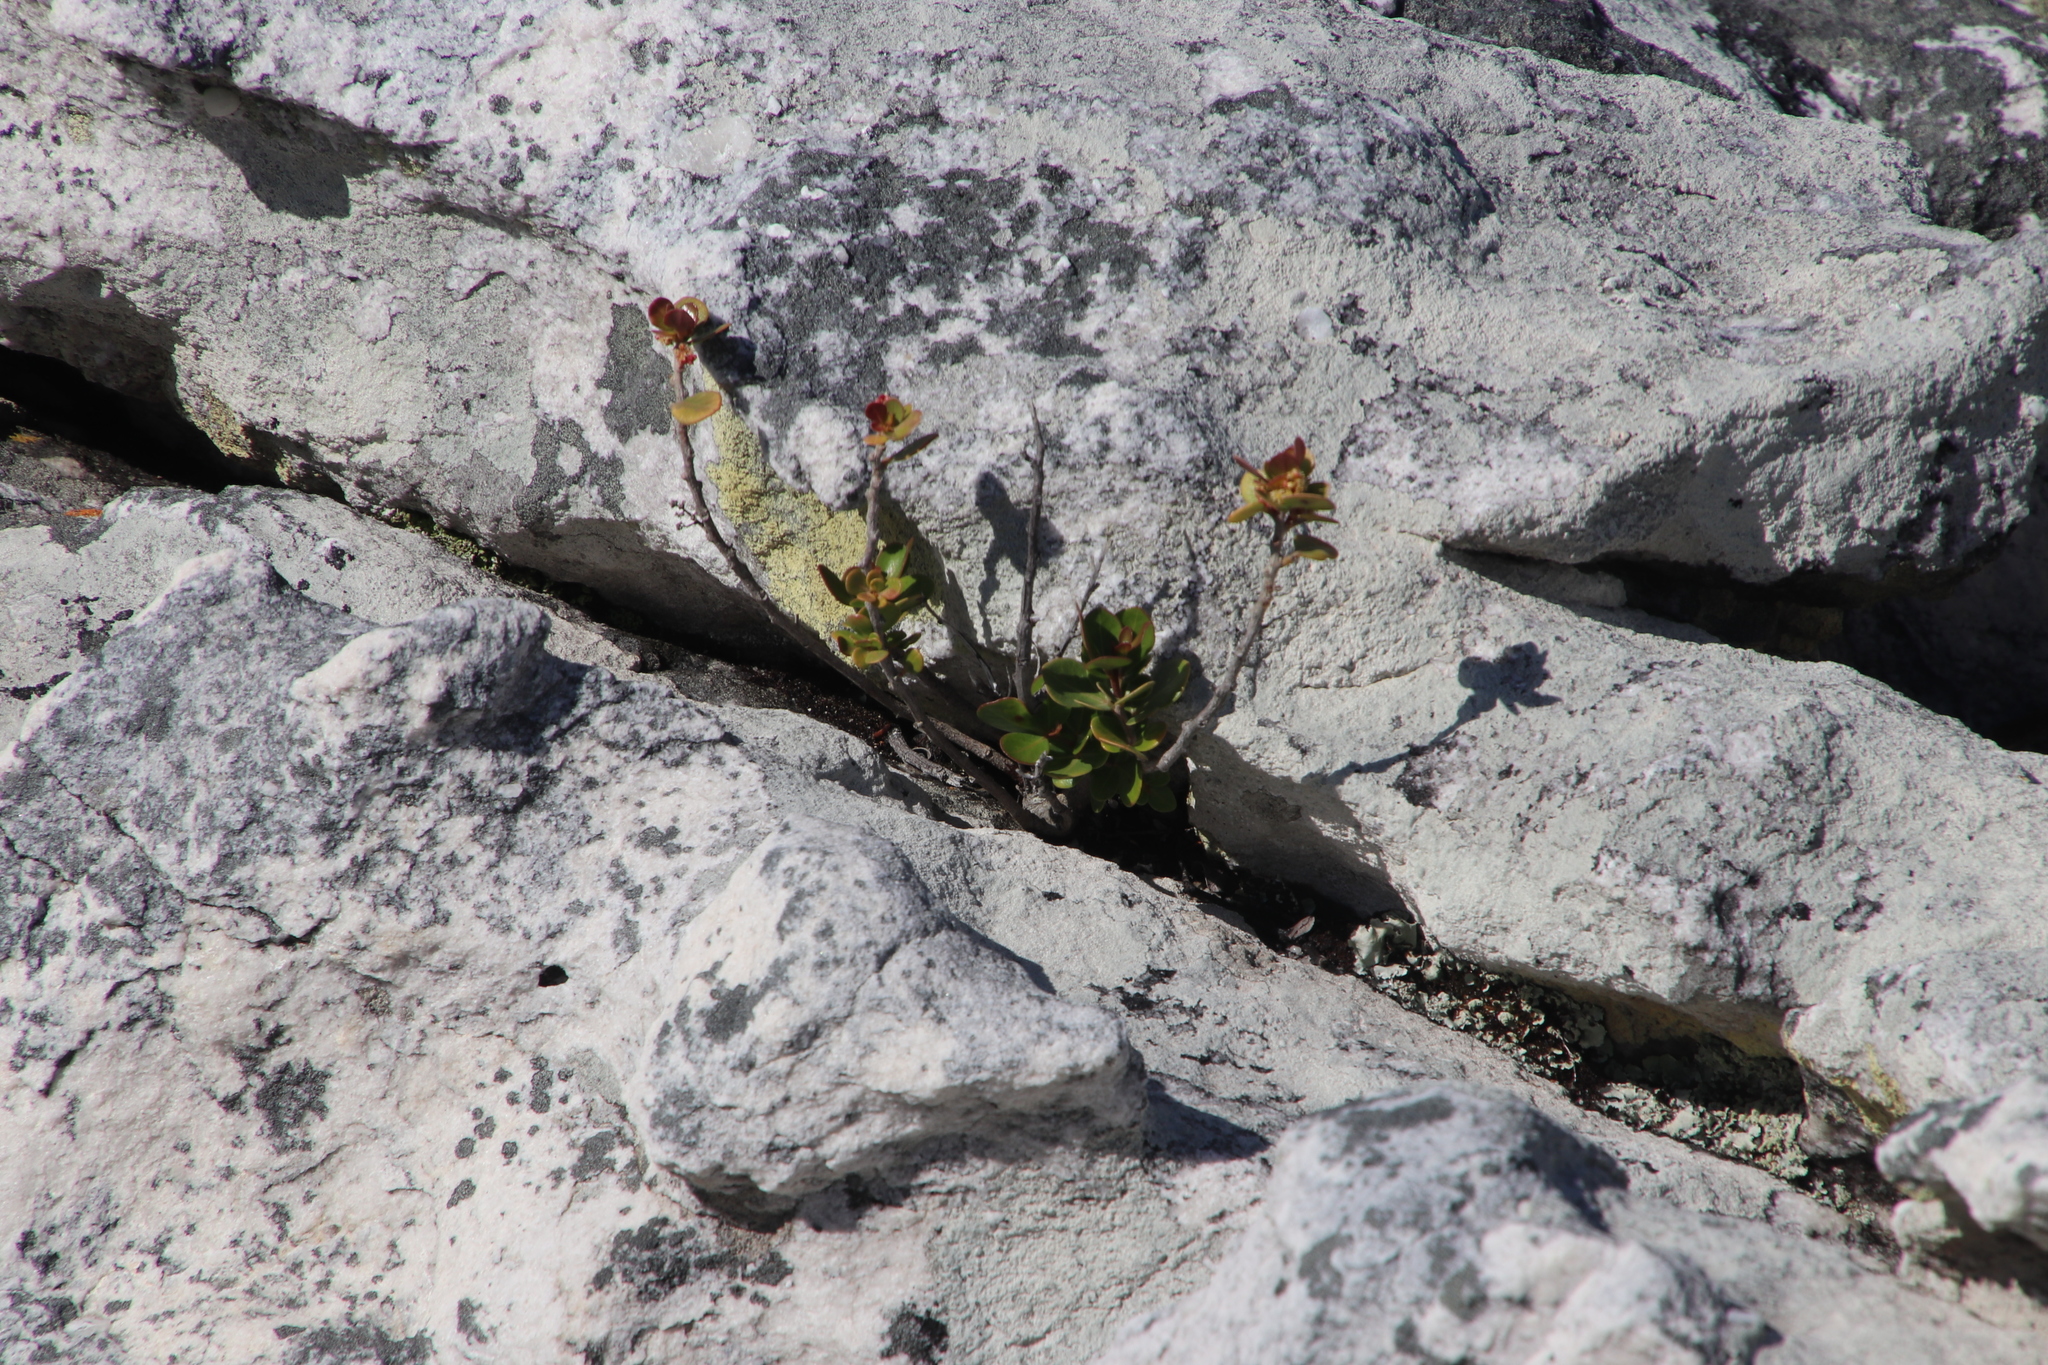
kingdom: Plantae
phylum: Tracheophyta
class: Magnoliopsida
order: Sapindales
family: Anacardiaceae
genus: Searsia
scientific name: Searsia lucida
